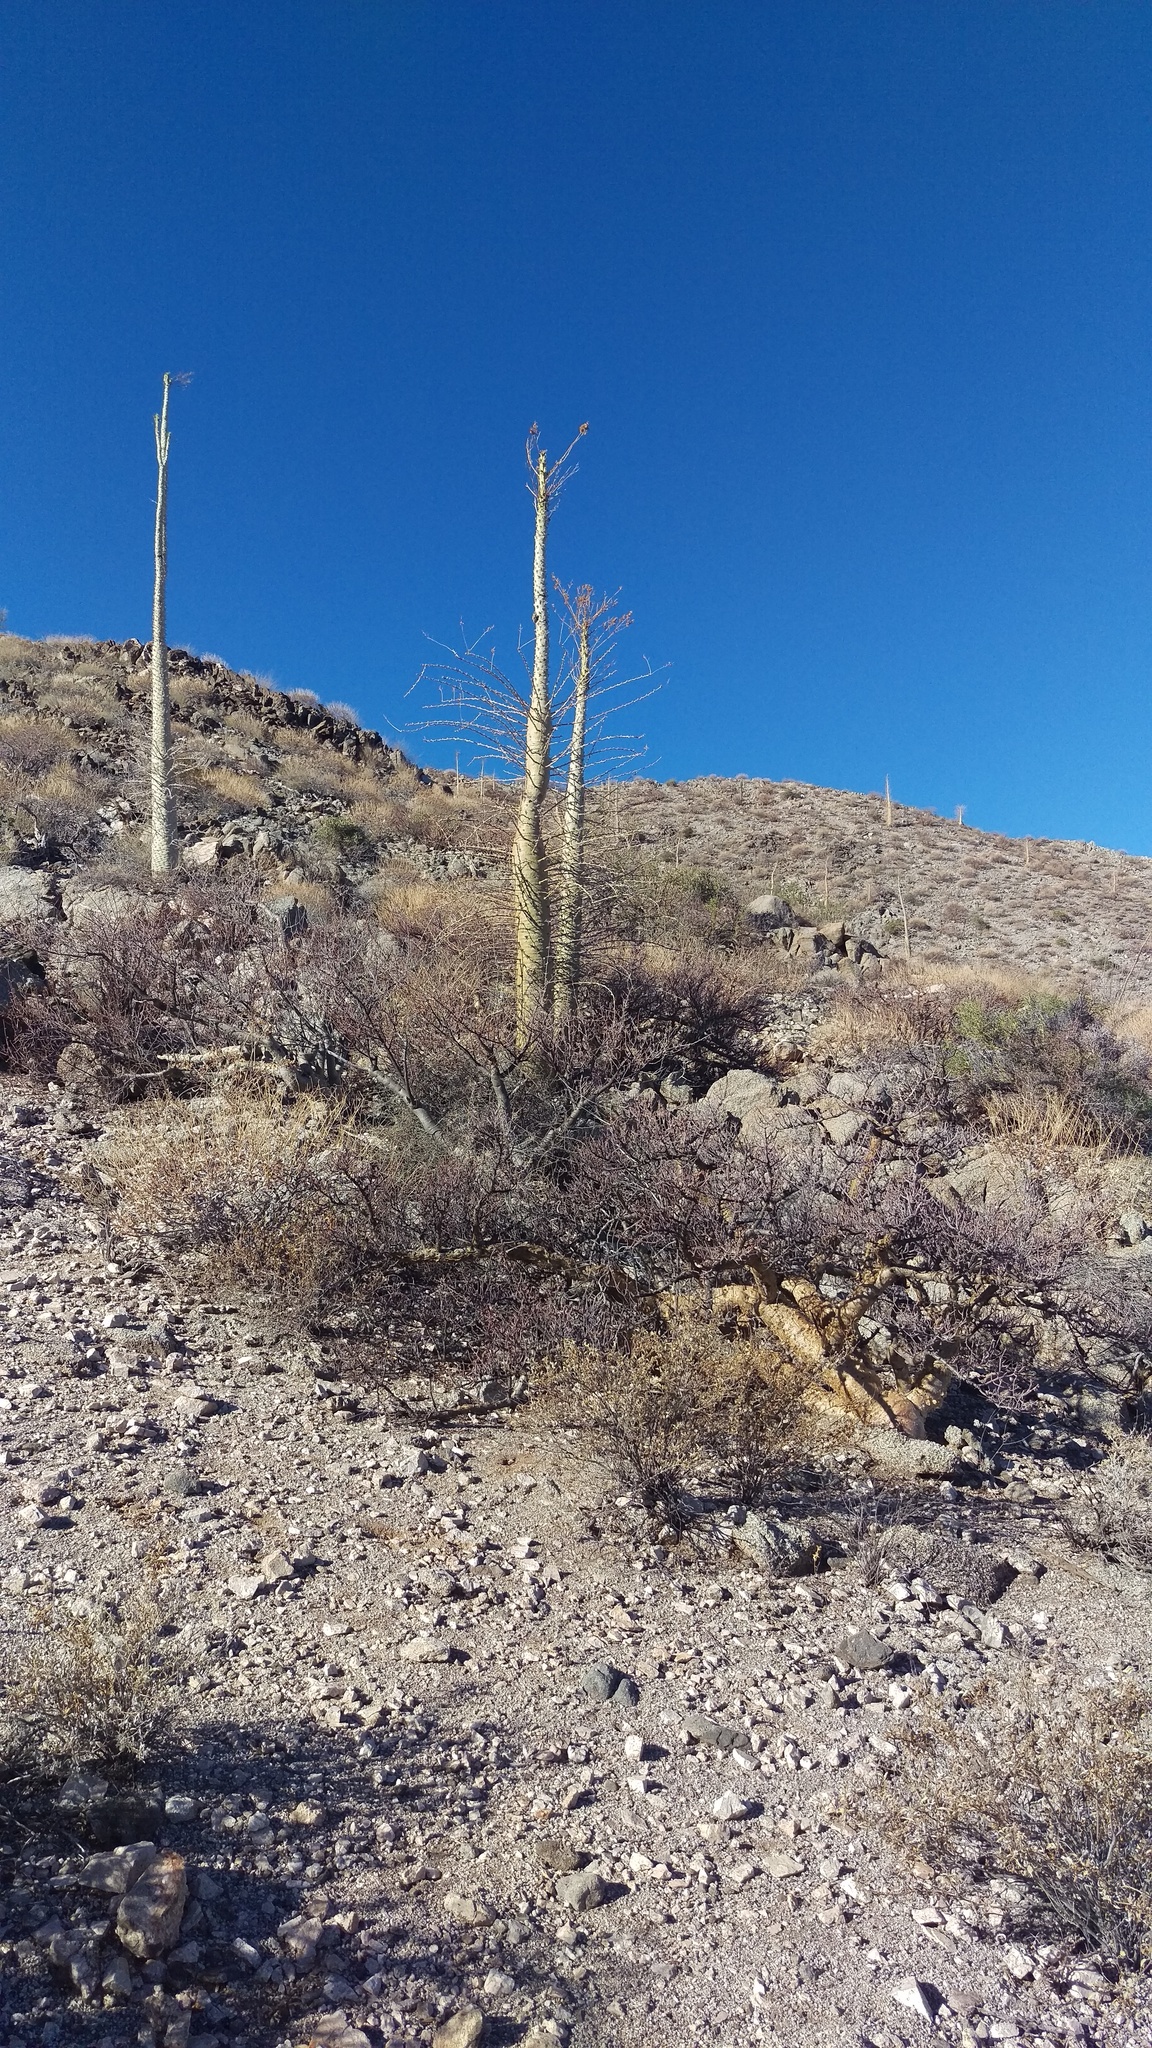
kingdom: Plantae
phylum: Tracheophyta
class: Magnoliopsida
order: Ericales
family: Fouquieriaceae
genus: Fouquieria
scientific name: Fouquieria columnaris
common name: Boojumtree
